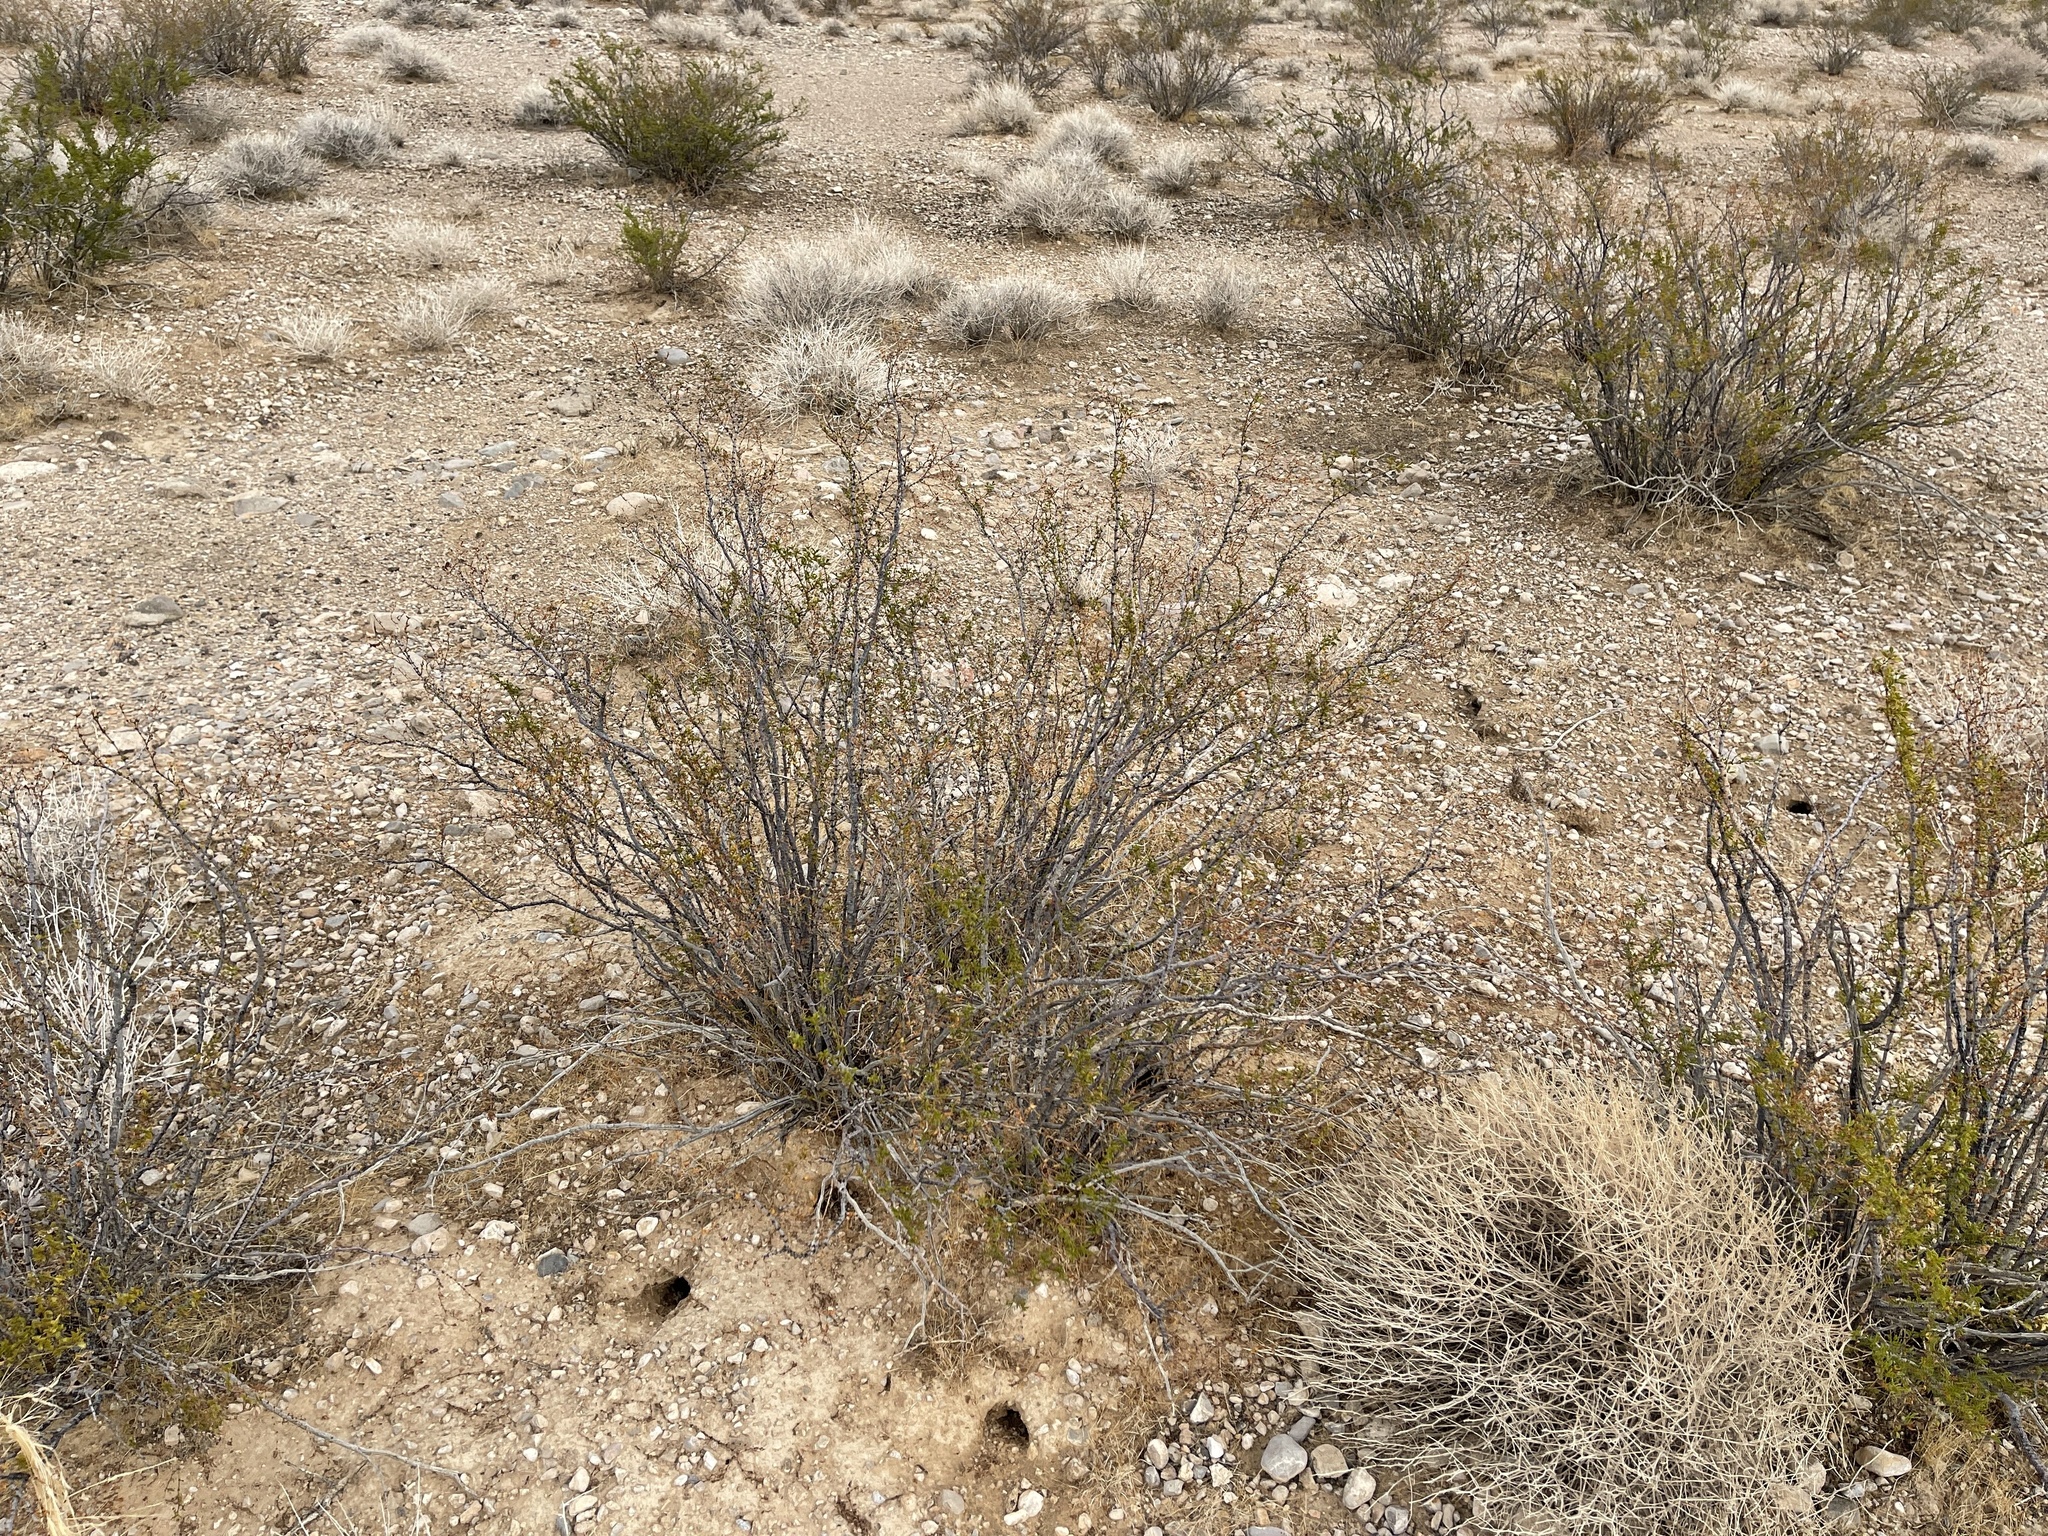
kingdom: Plantae
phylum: Tracheophyta
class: Magnoliopsida
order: Zygophyllales
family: Zygophyllaceae
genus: Larrea
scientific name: Larrea tridentata
